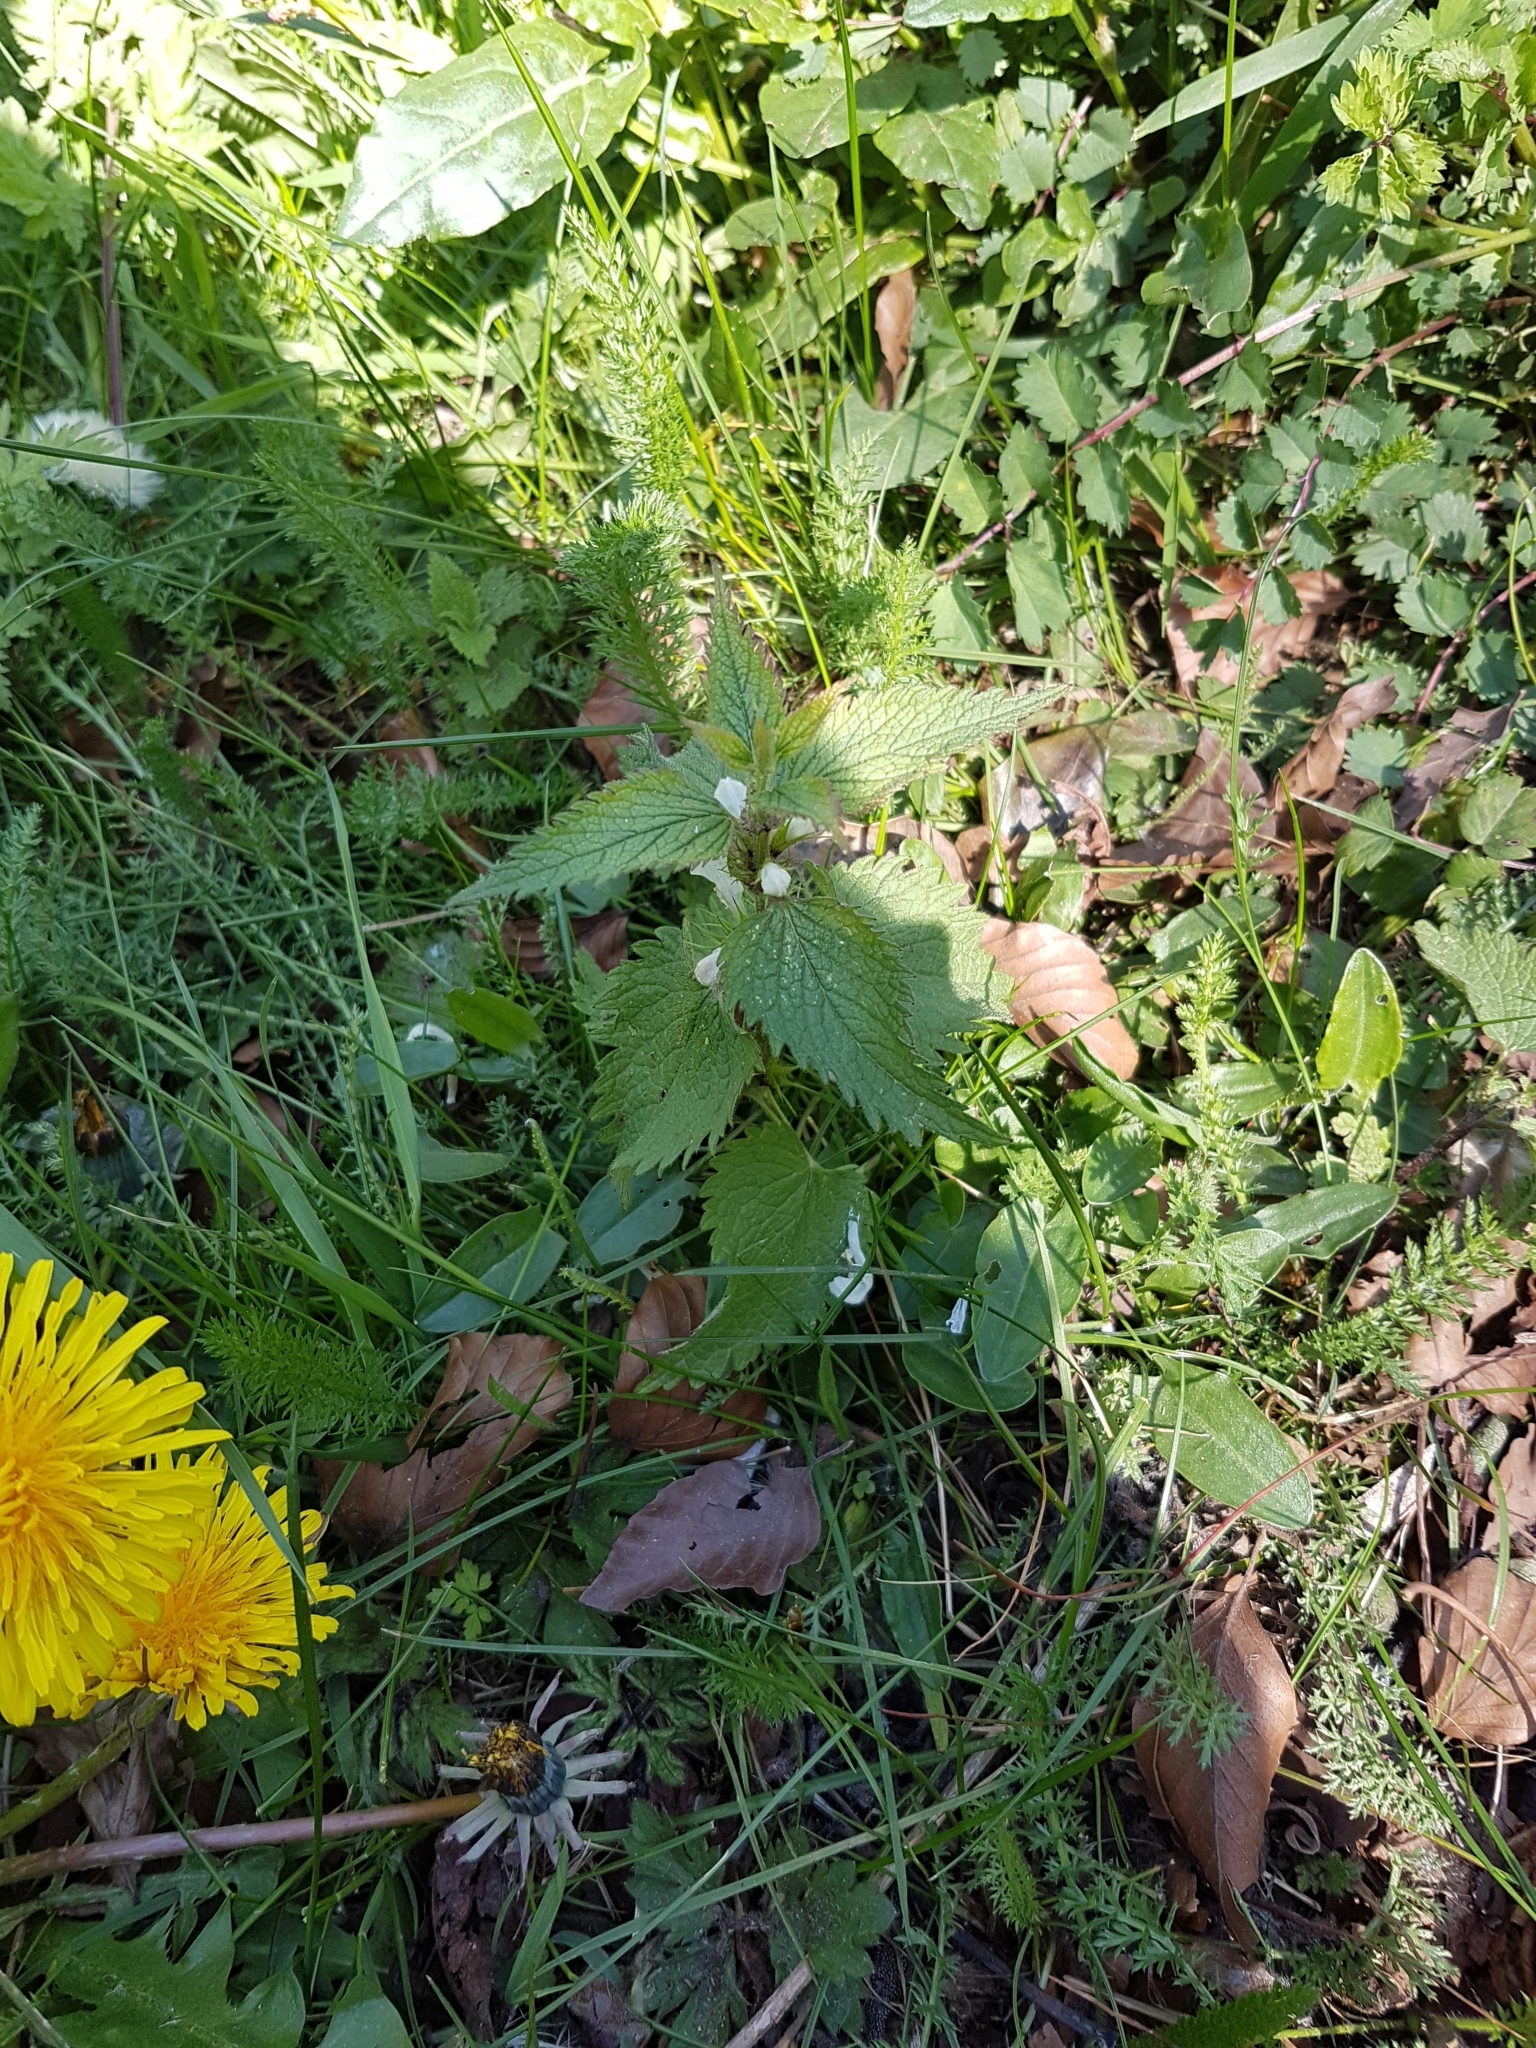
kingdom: Plantae
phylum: Tracheophyta
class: Magnoliopsida
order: Lamiales
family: Lamiaceae
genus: Lamium
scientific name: Lamium album
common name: White dead-nettle
